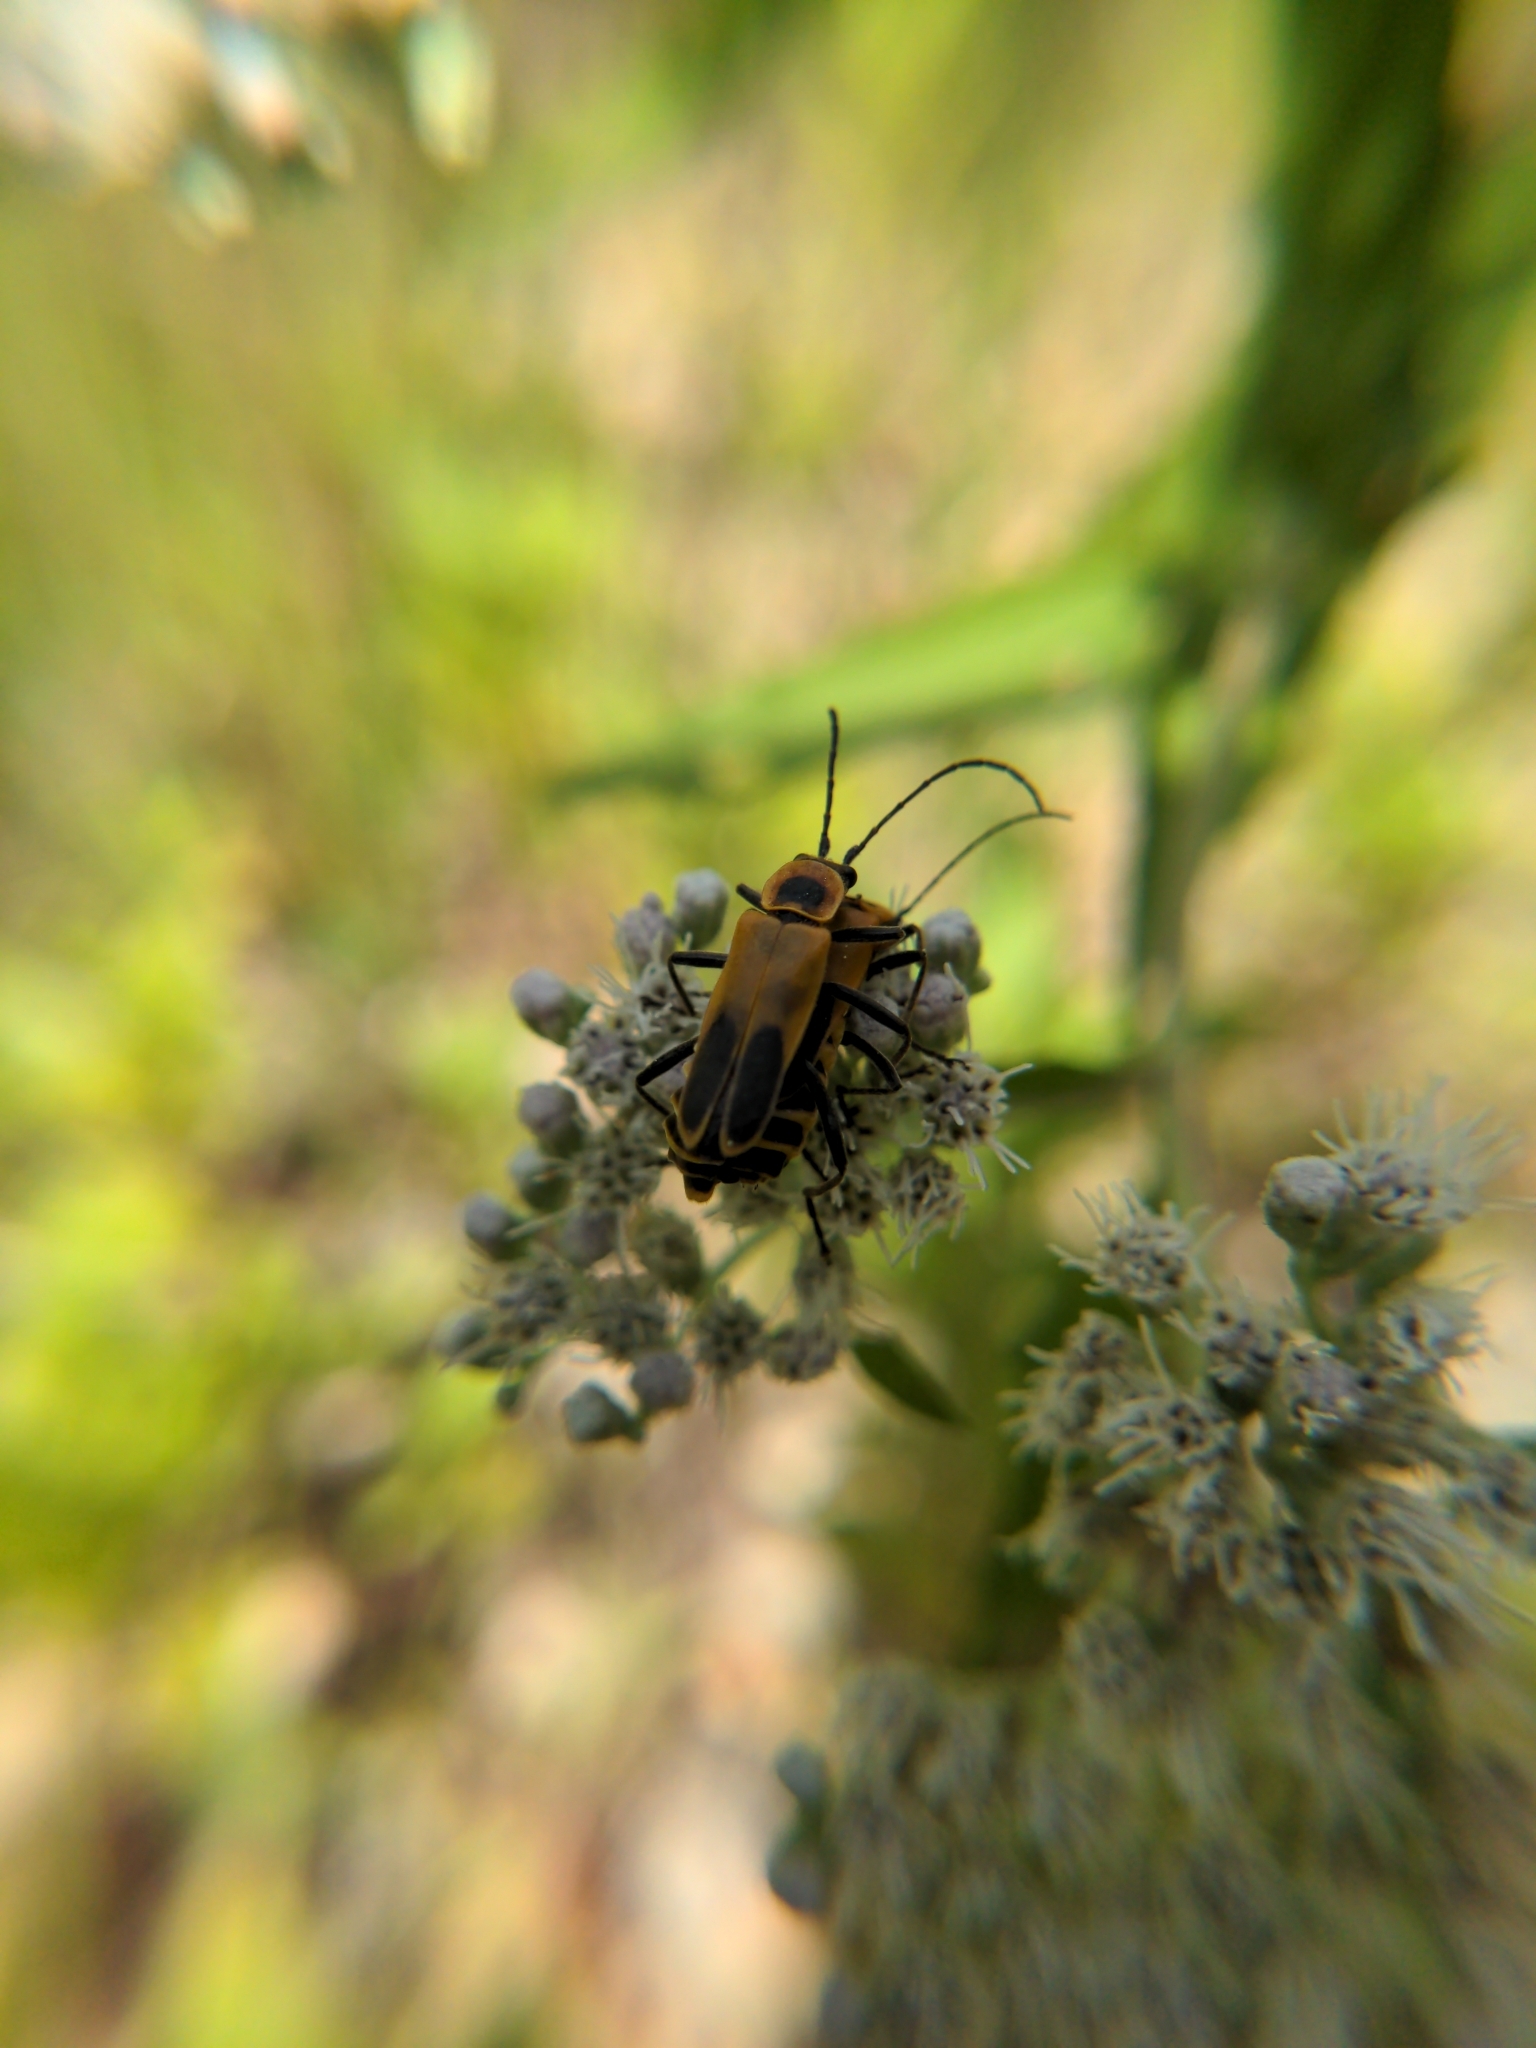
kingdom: Animalia
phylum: Arthropoda
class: Insecta
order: Coleoptera
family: Cantharidae
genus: Chauliognathus
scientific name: Chauliognathus pensylvanicus
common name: Goldenrod soldier beetle
